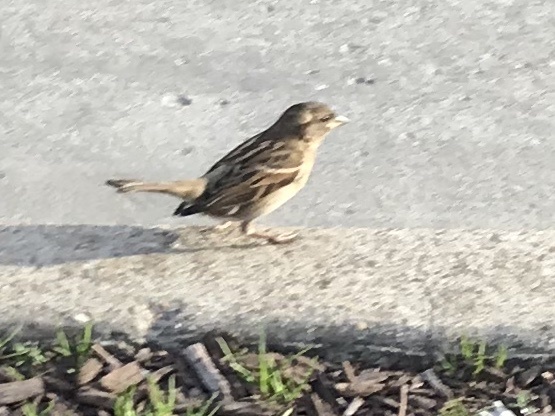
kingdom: Animalia
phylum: Chordata
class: Aves
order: Passeriformes
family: Passeridae
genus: Passer
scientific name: Passer domesticus
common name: House sparrow
